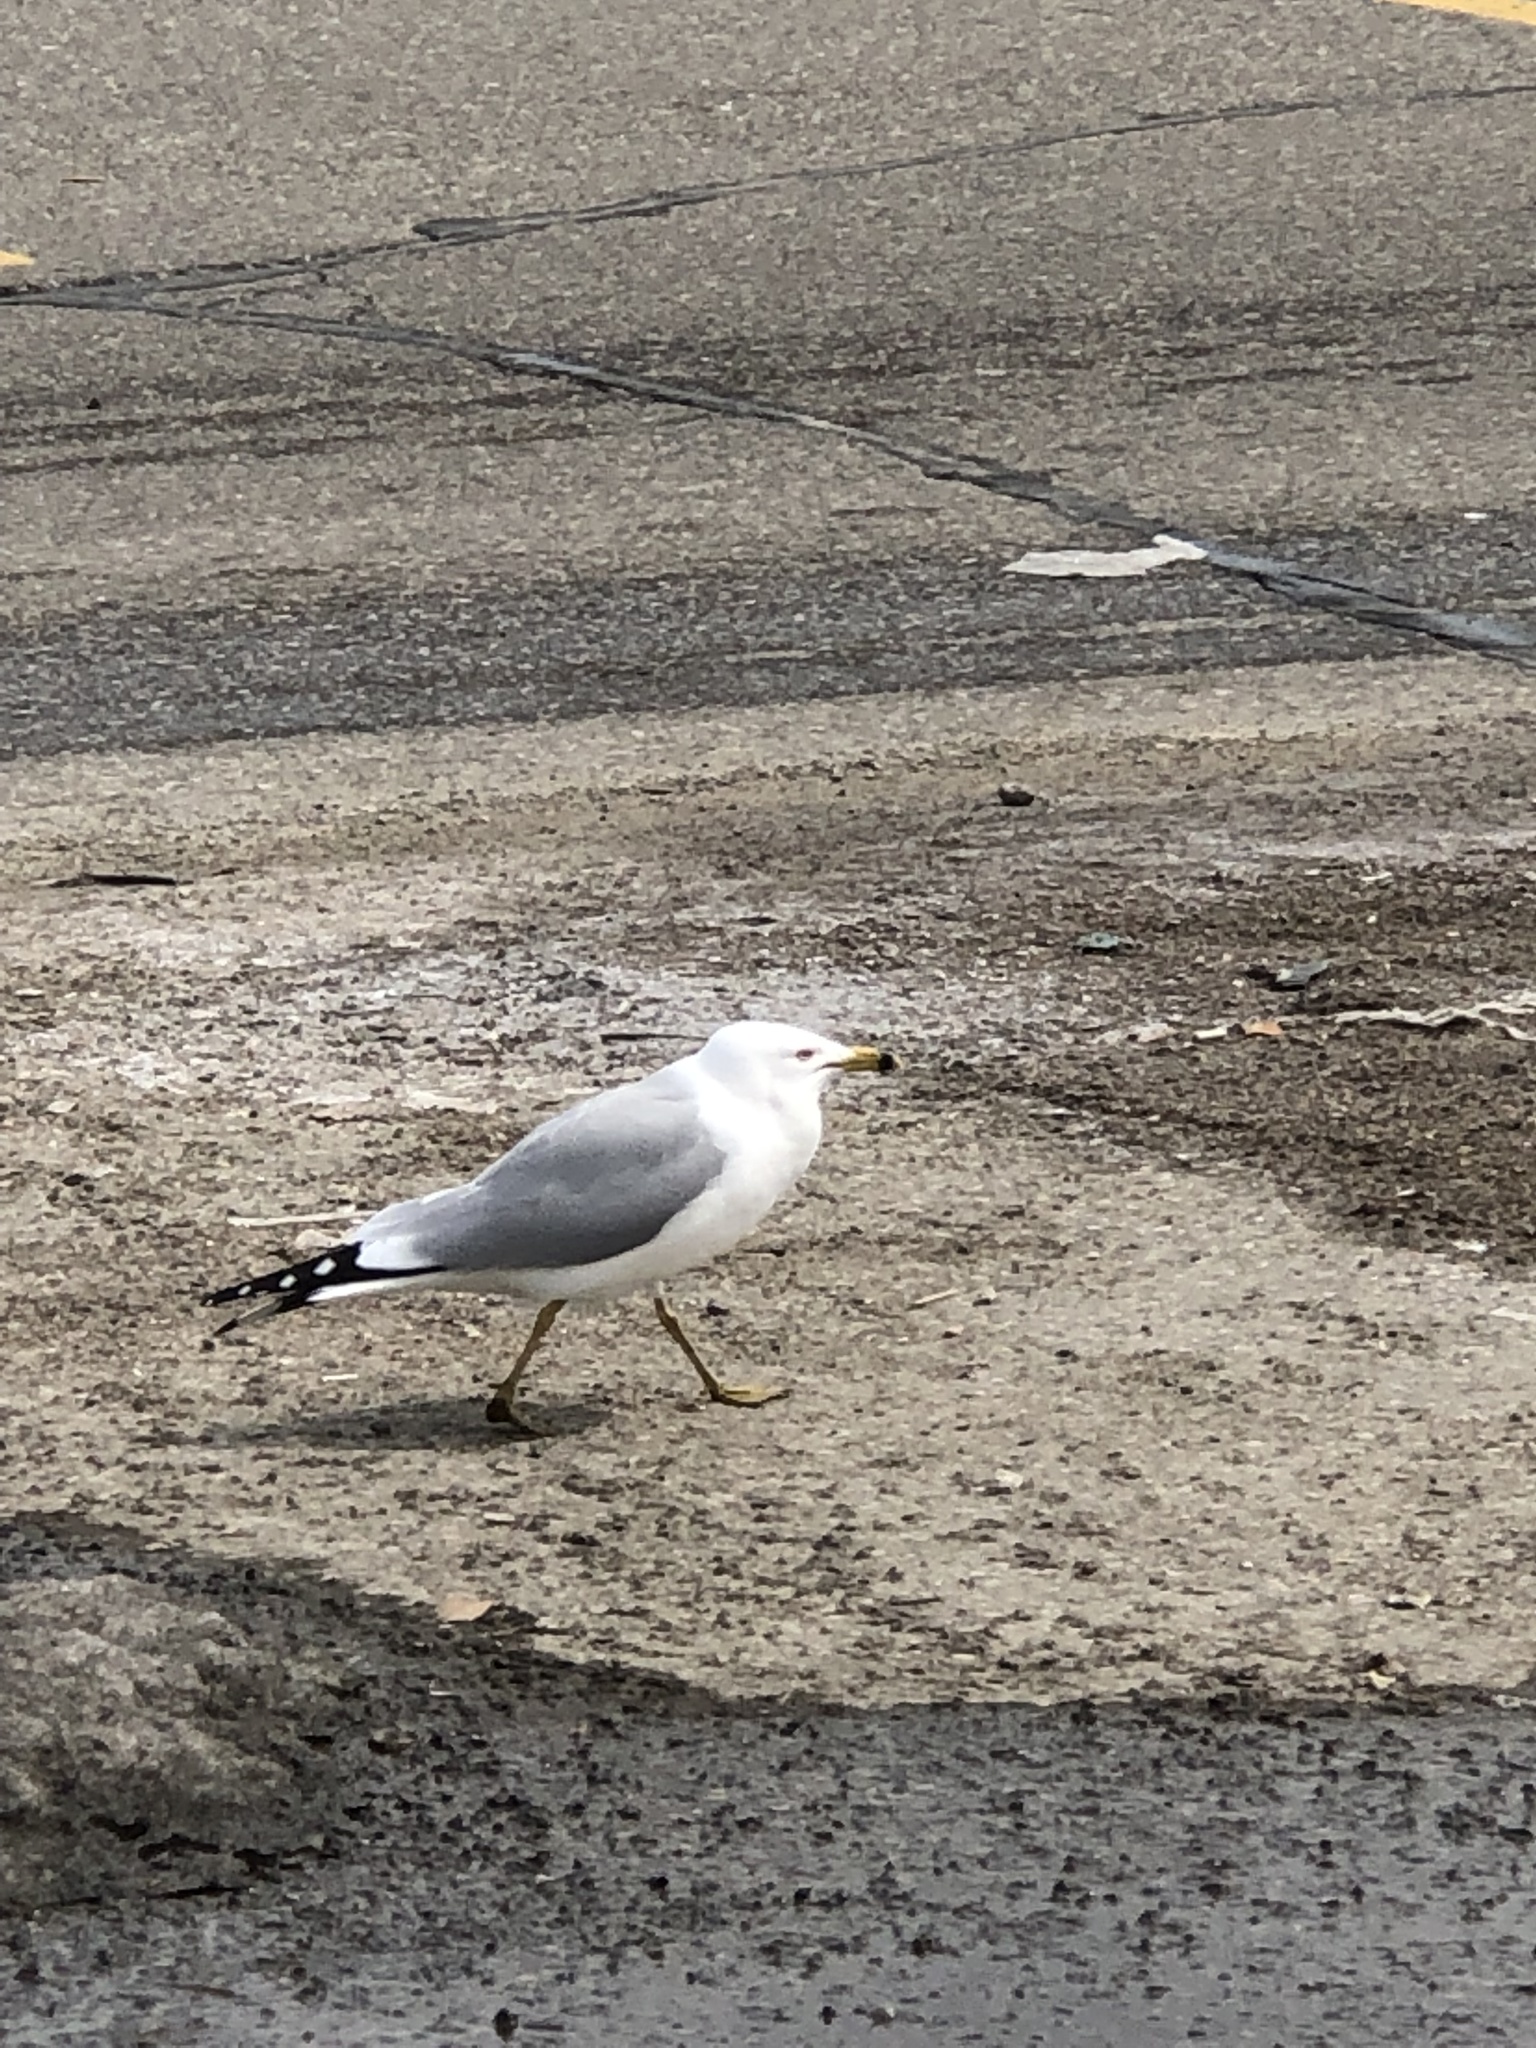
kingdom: Animalia
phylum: Chordata
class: Aves
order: Charadriiformes
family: Laridae
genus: Larus
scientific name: Larus delawarensis
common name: Ring-billed gull
